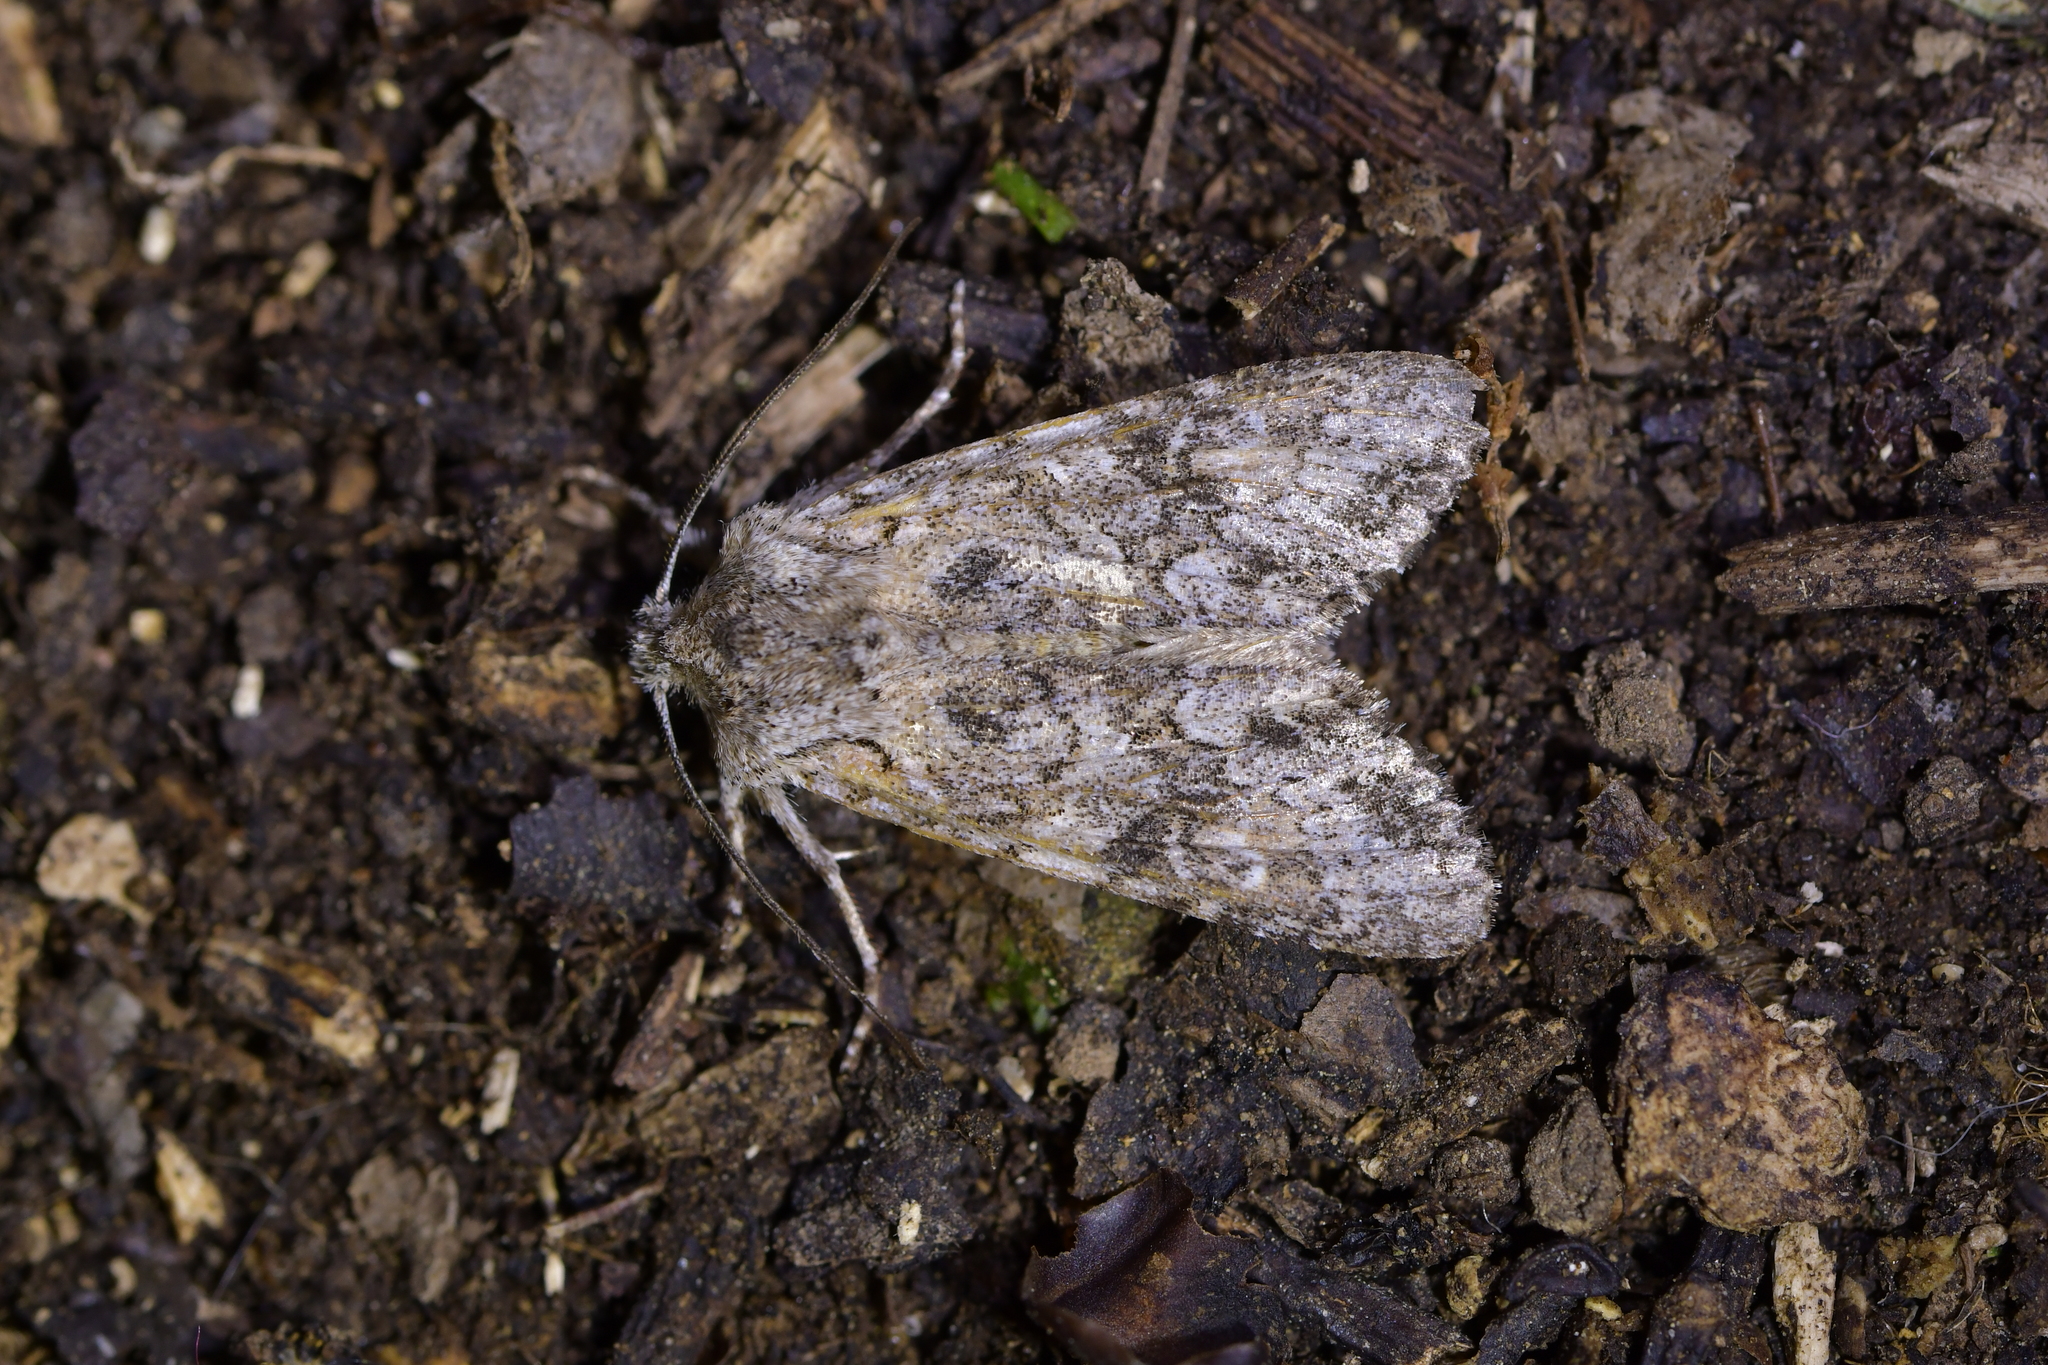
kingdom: Animalia
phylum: Arthropoda
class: Insecta
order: Lepidoptera
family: Noctuidae
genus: Ichneutica
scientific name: Ichneutica mutans
